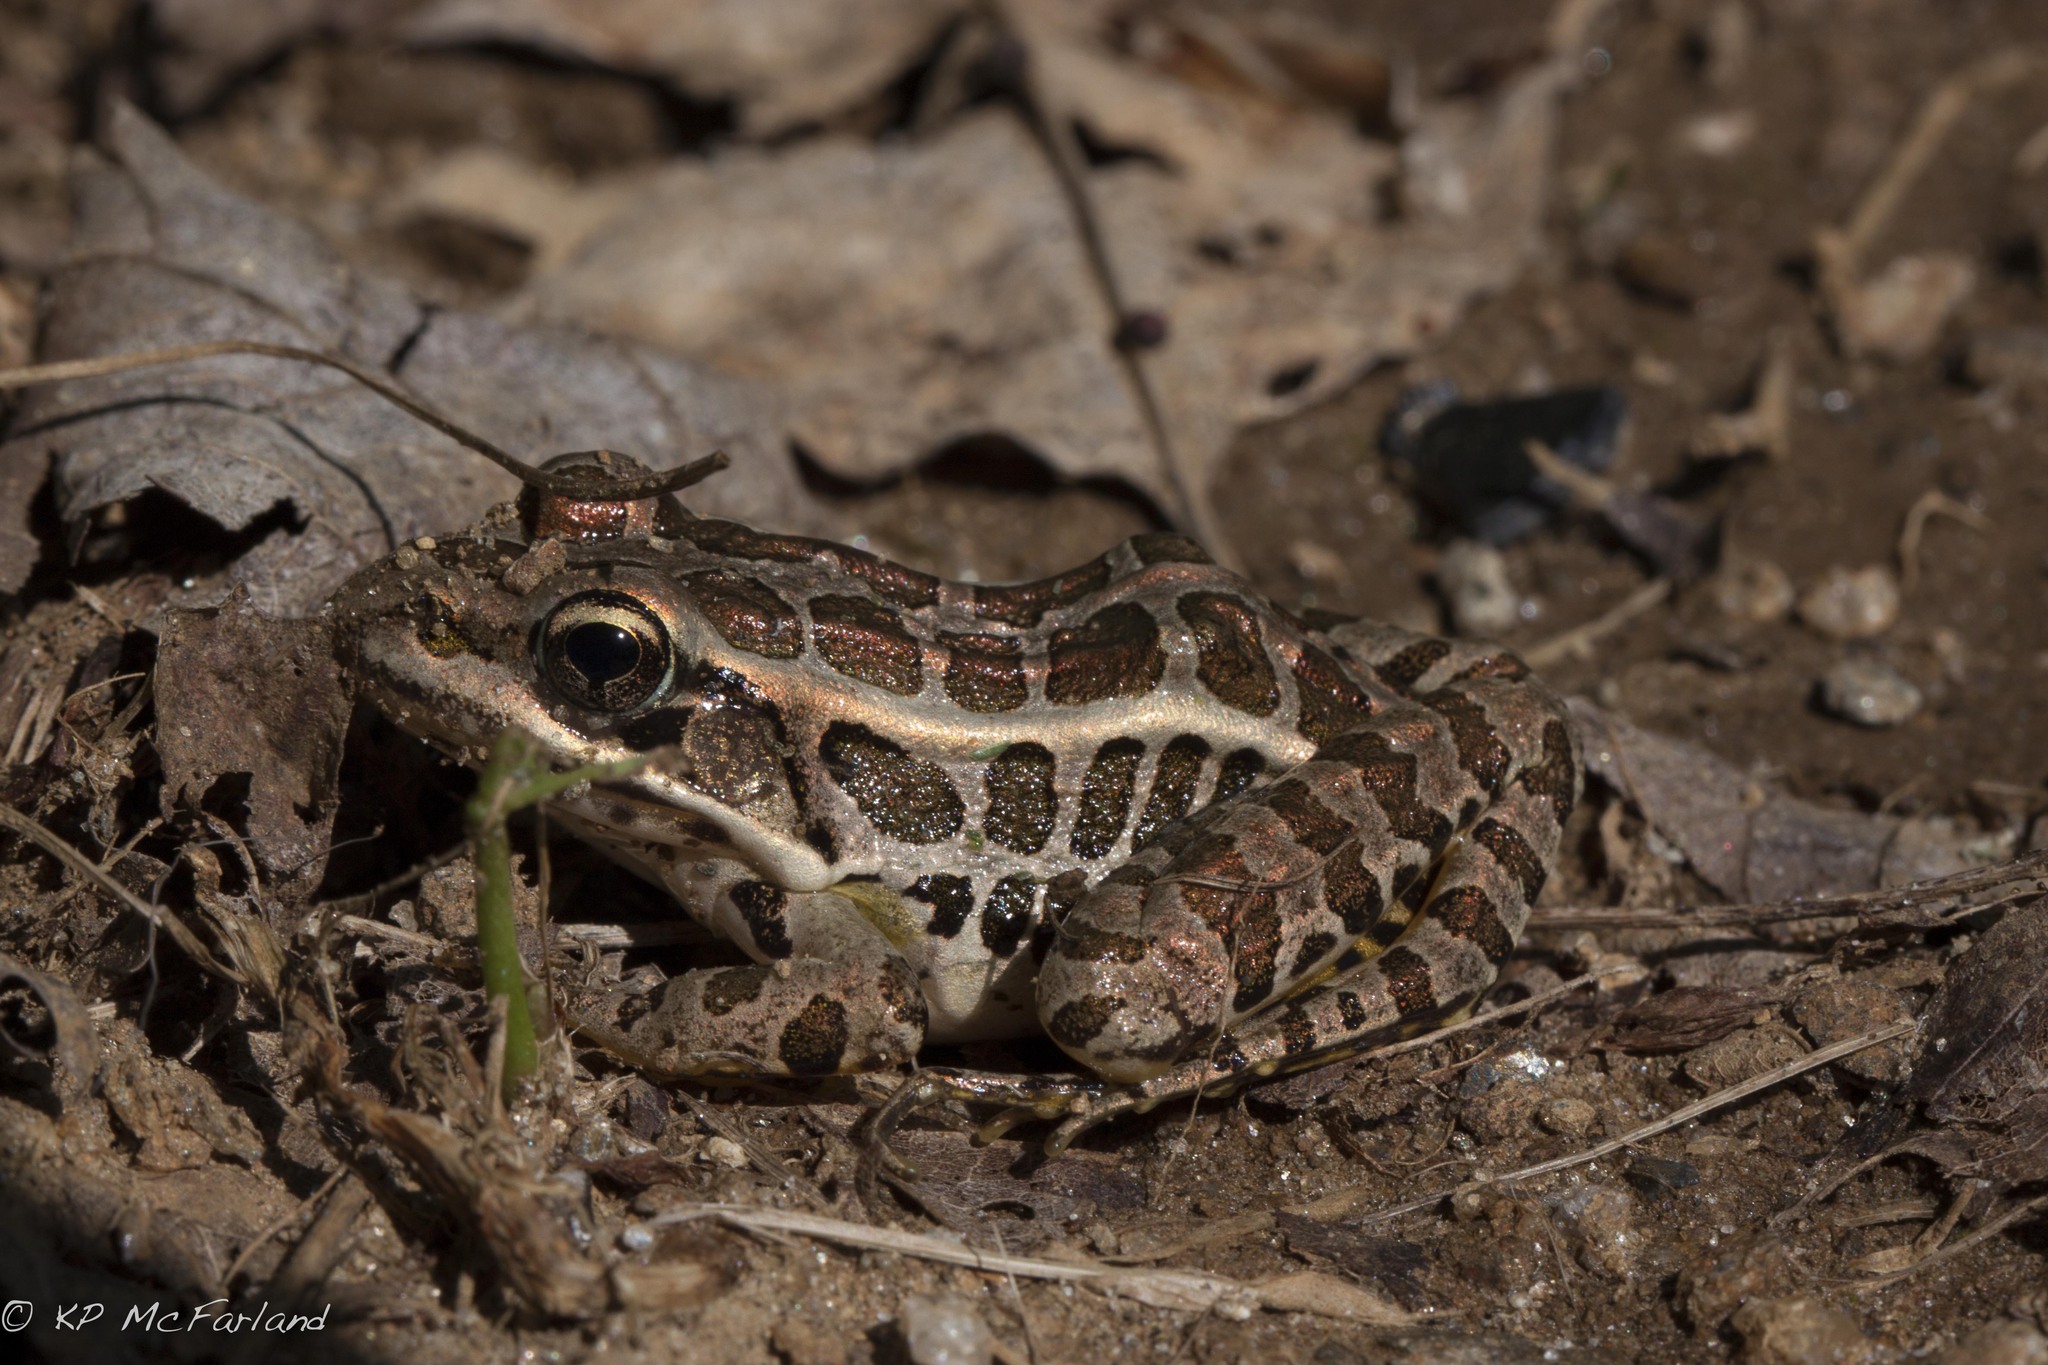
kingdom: Animalia
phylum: Chordata
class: Amphibia
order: Anura
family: Ranidae
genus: Lithobates
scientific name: Lithobates palustris
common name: Pickerel frog
